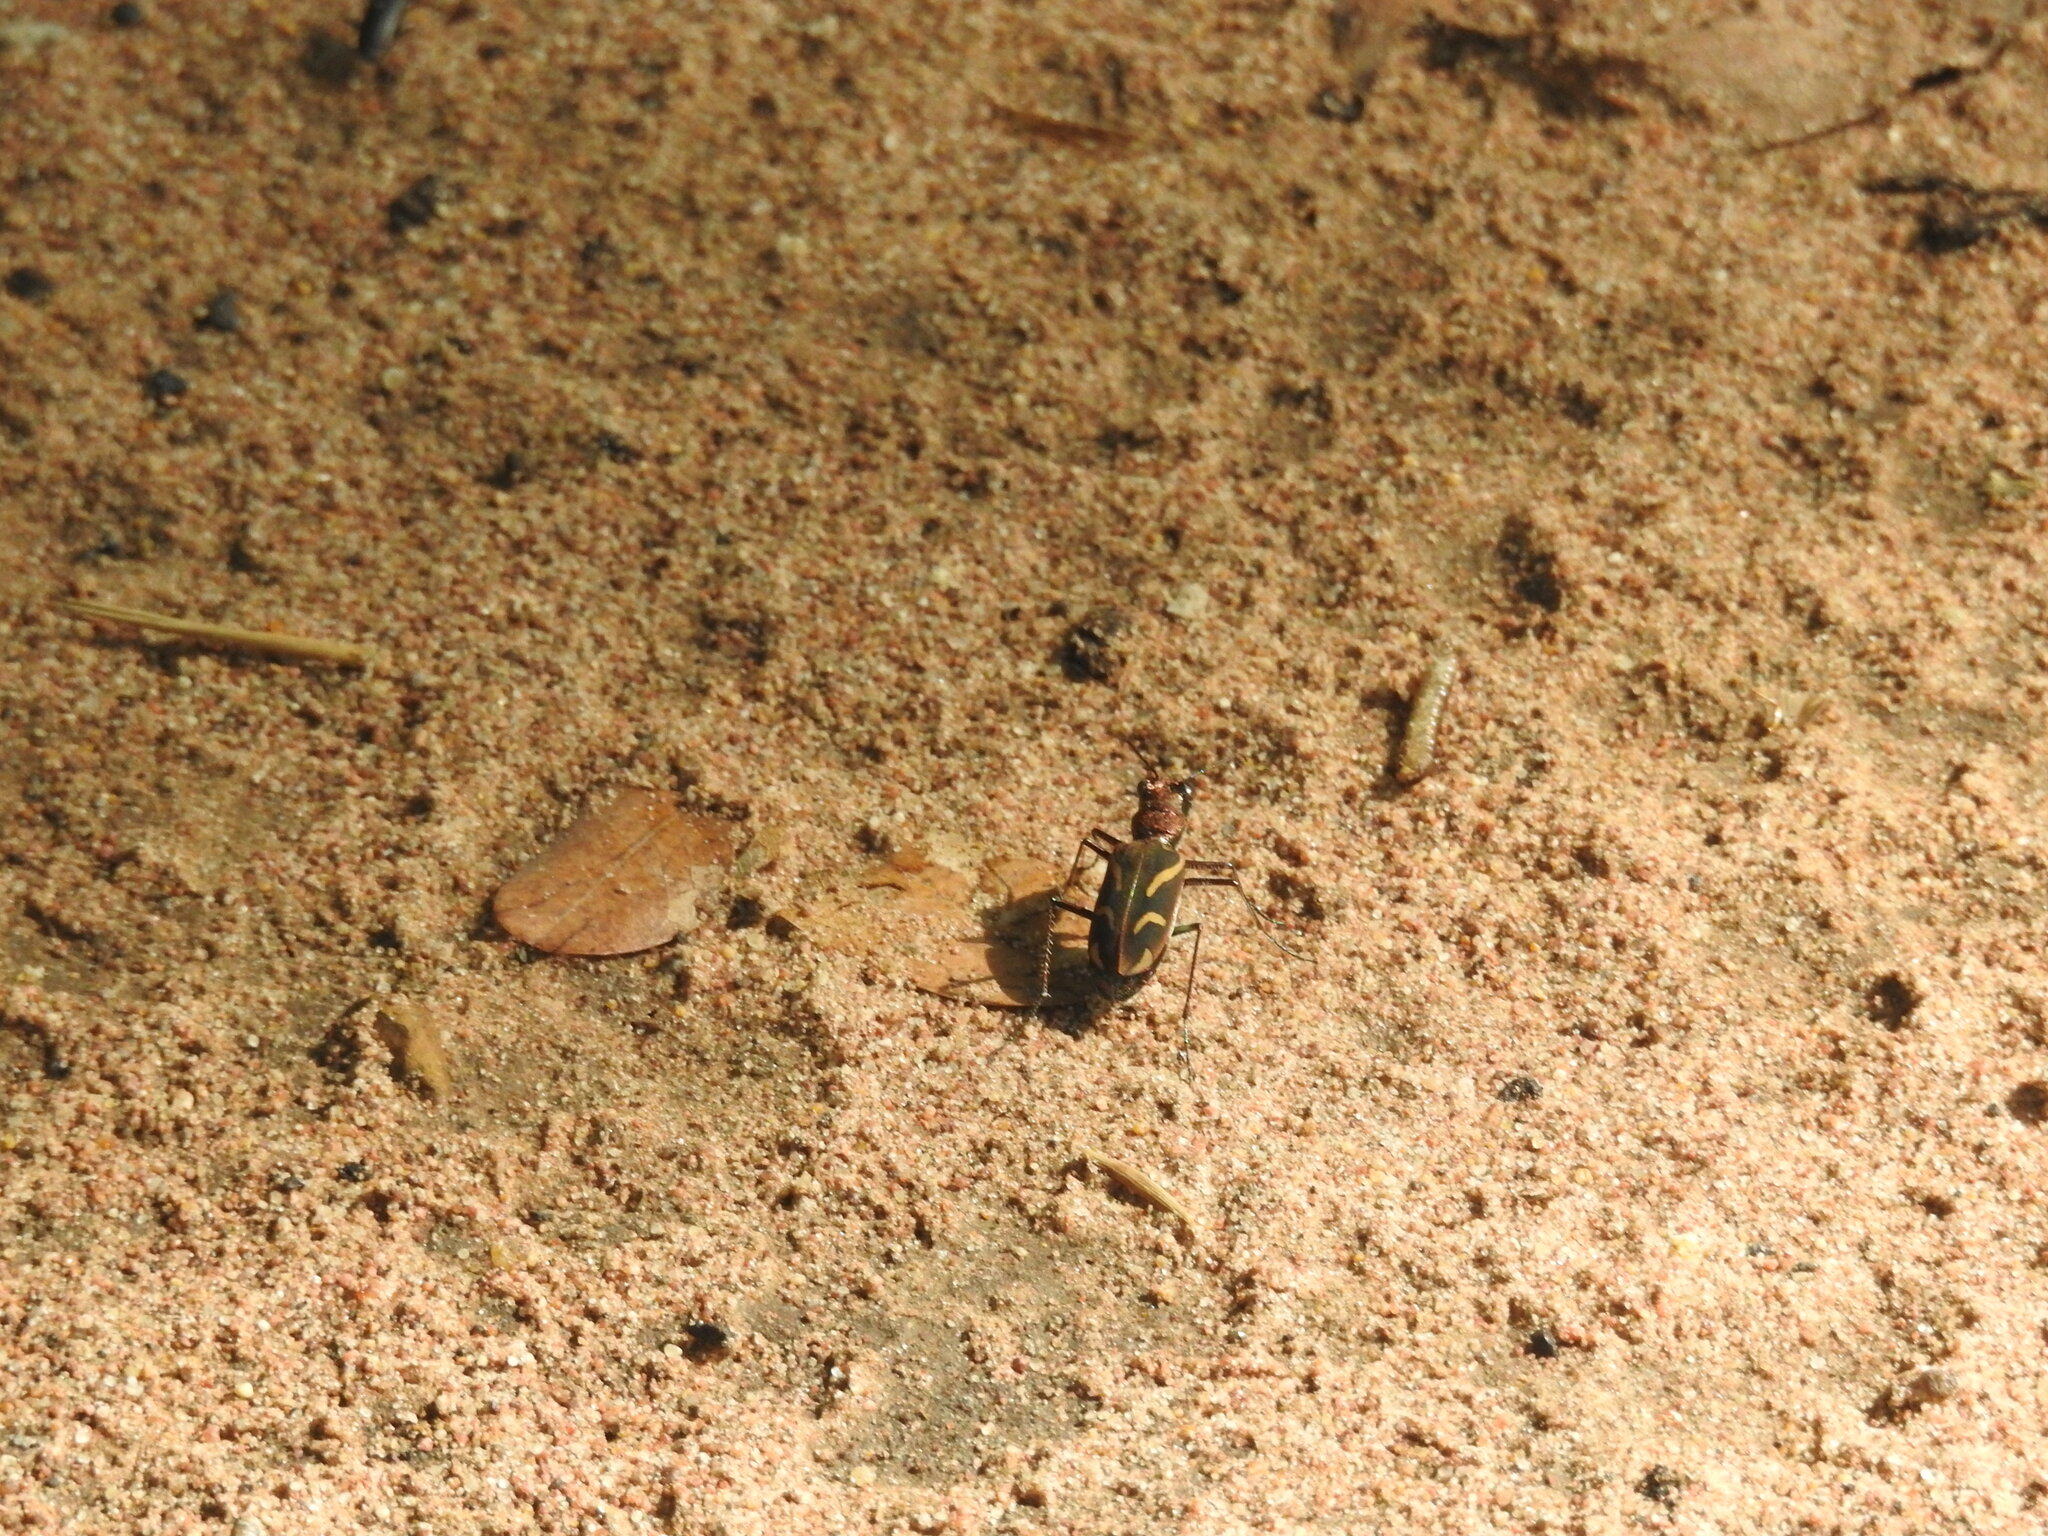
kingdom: Animalia
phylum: Arthropoda
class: Insecta
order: Coleoptera
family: Carabidae
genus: Cicindela
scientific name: Cicindela calligramma
